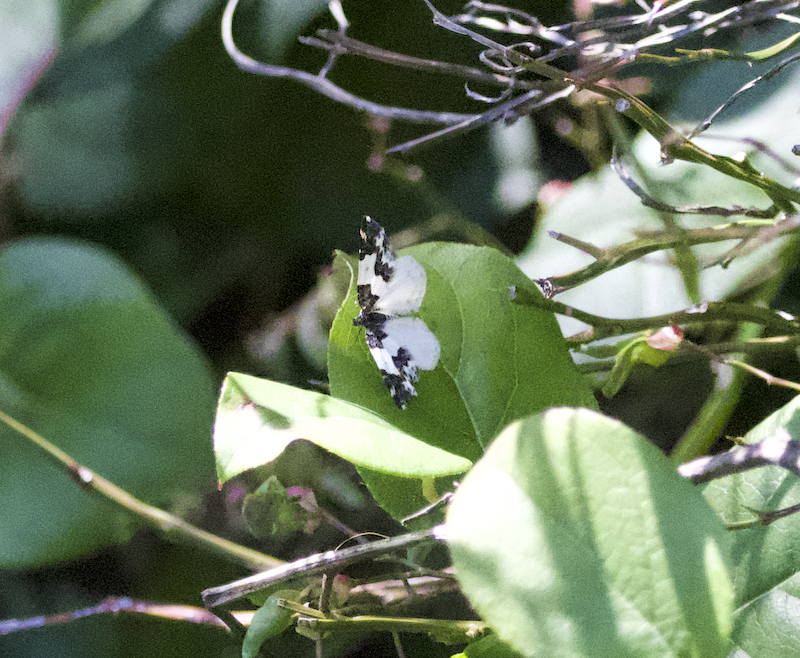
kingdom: Animalia
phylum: Arthropoda
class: Insecta
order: Lepidoptera
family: Geometridae
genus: Mesoleuca
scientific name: Mesoleuca gratulata
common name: Half-white carpet moth
